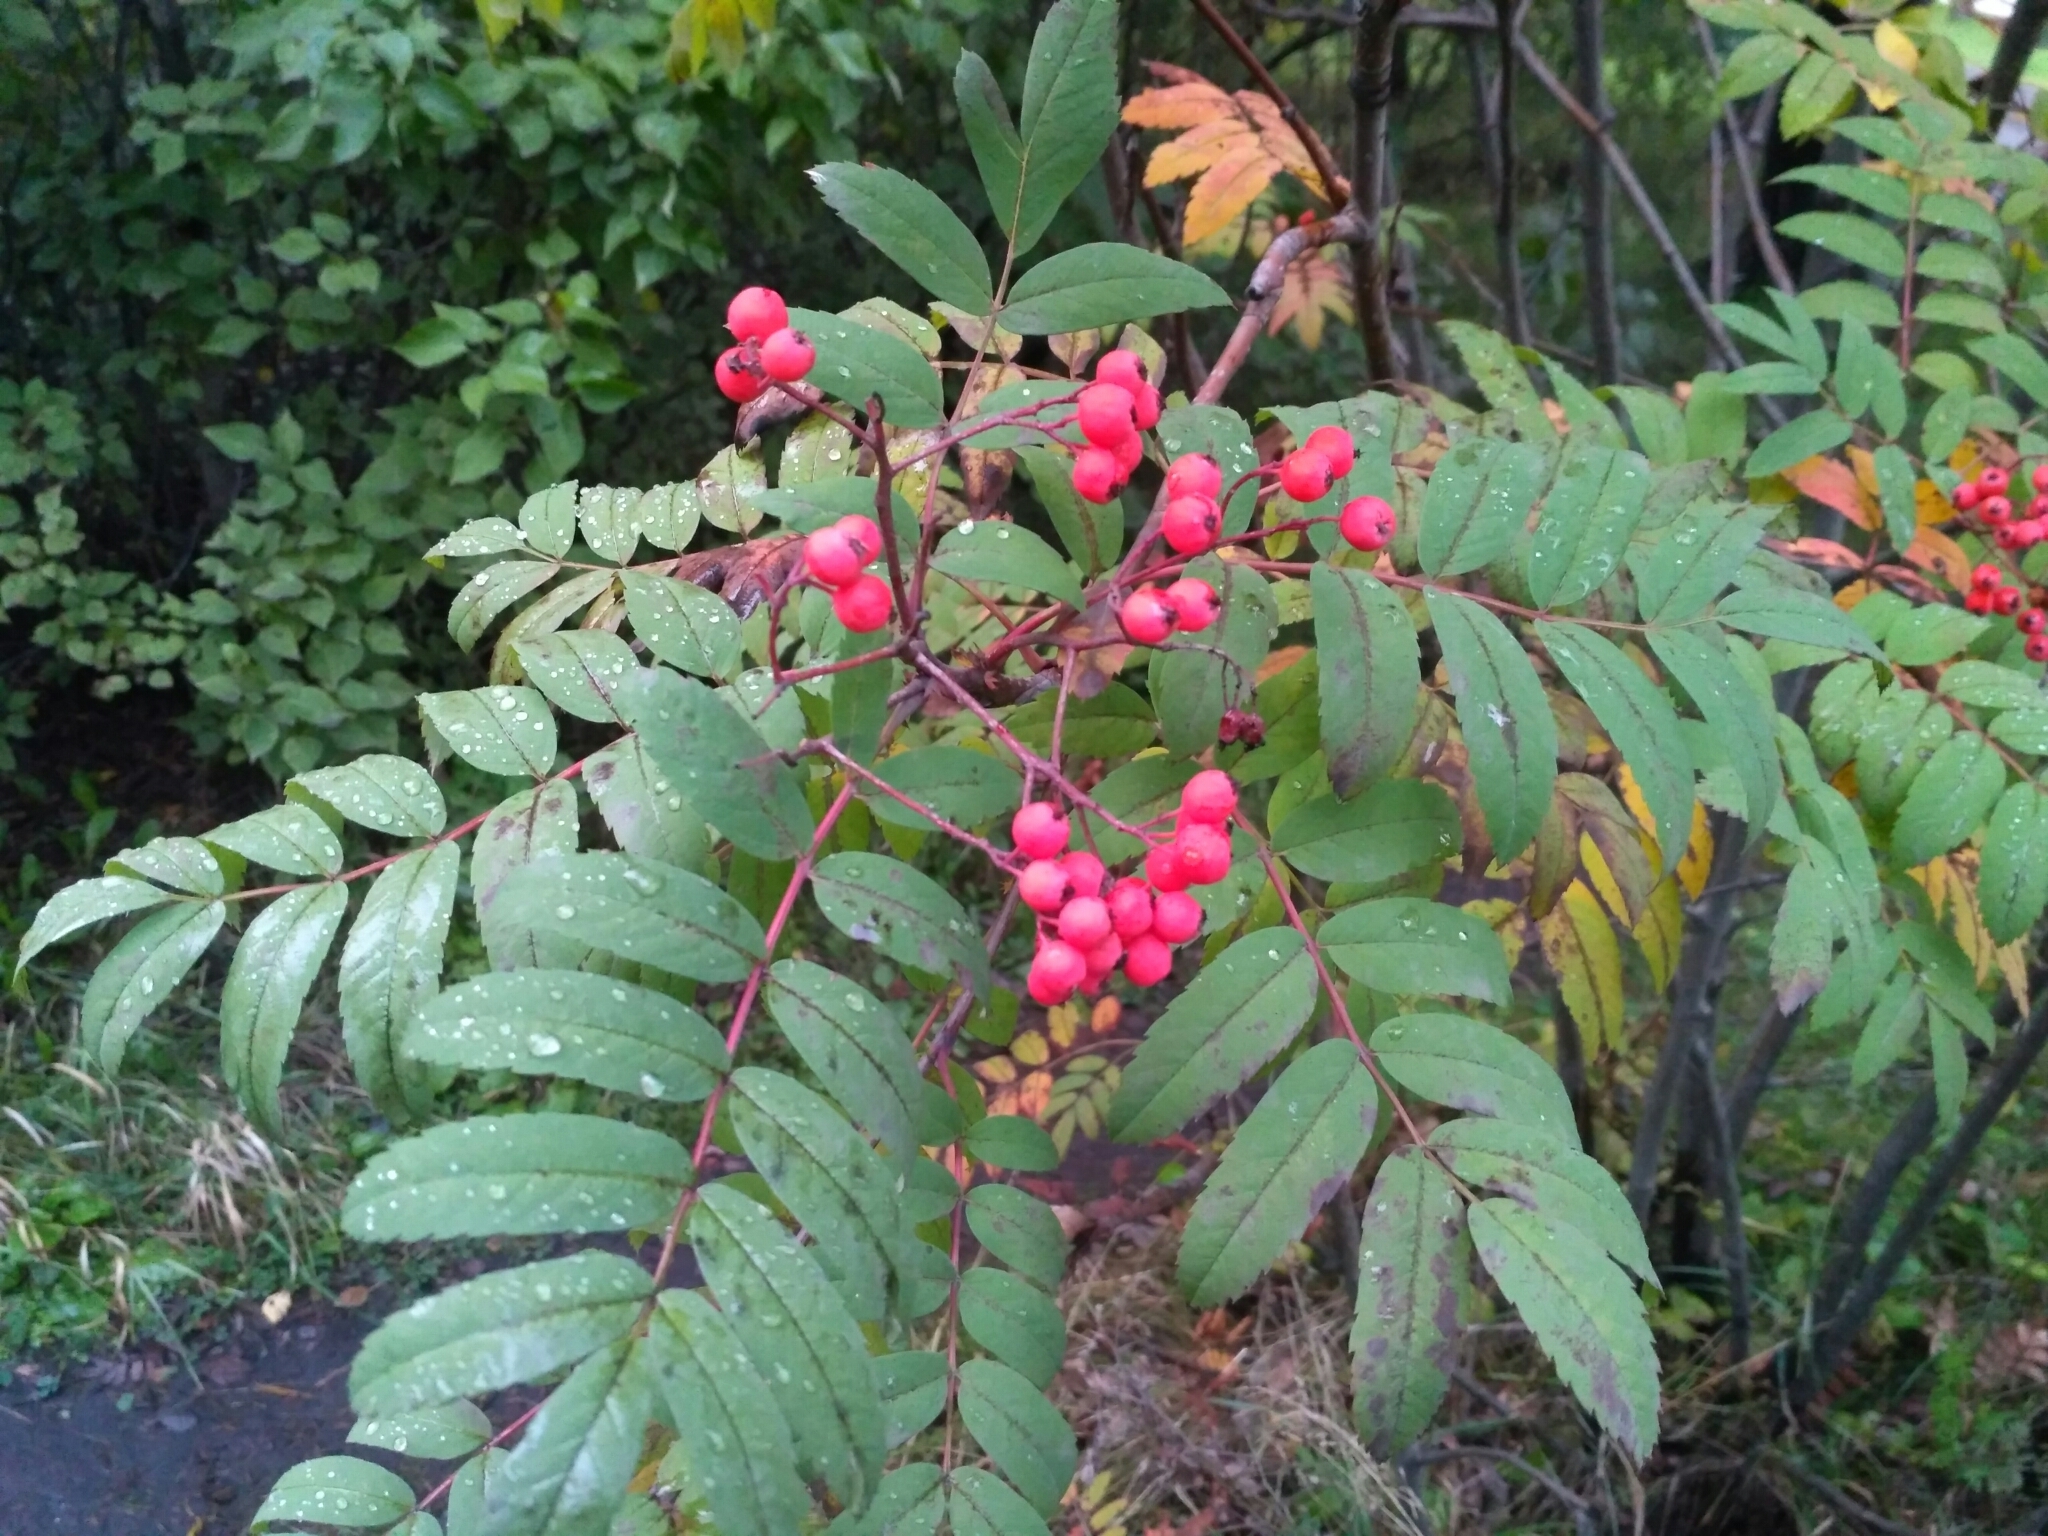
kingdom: Plantae
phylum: Tracheophyta
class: Magnoliopsida
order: Rosales
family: Rosaceae
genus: Sorbus
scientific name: Sorbus aucuparia
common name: Rowan
